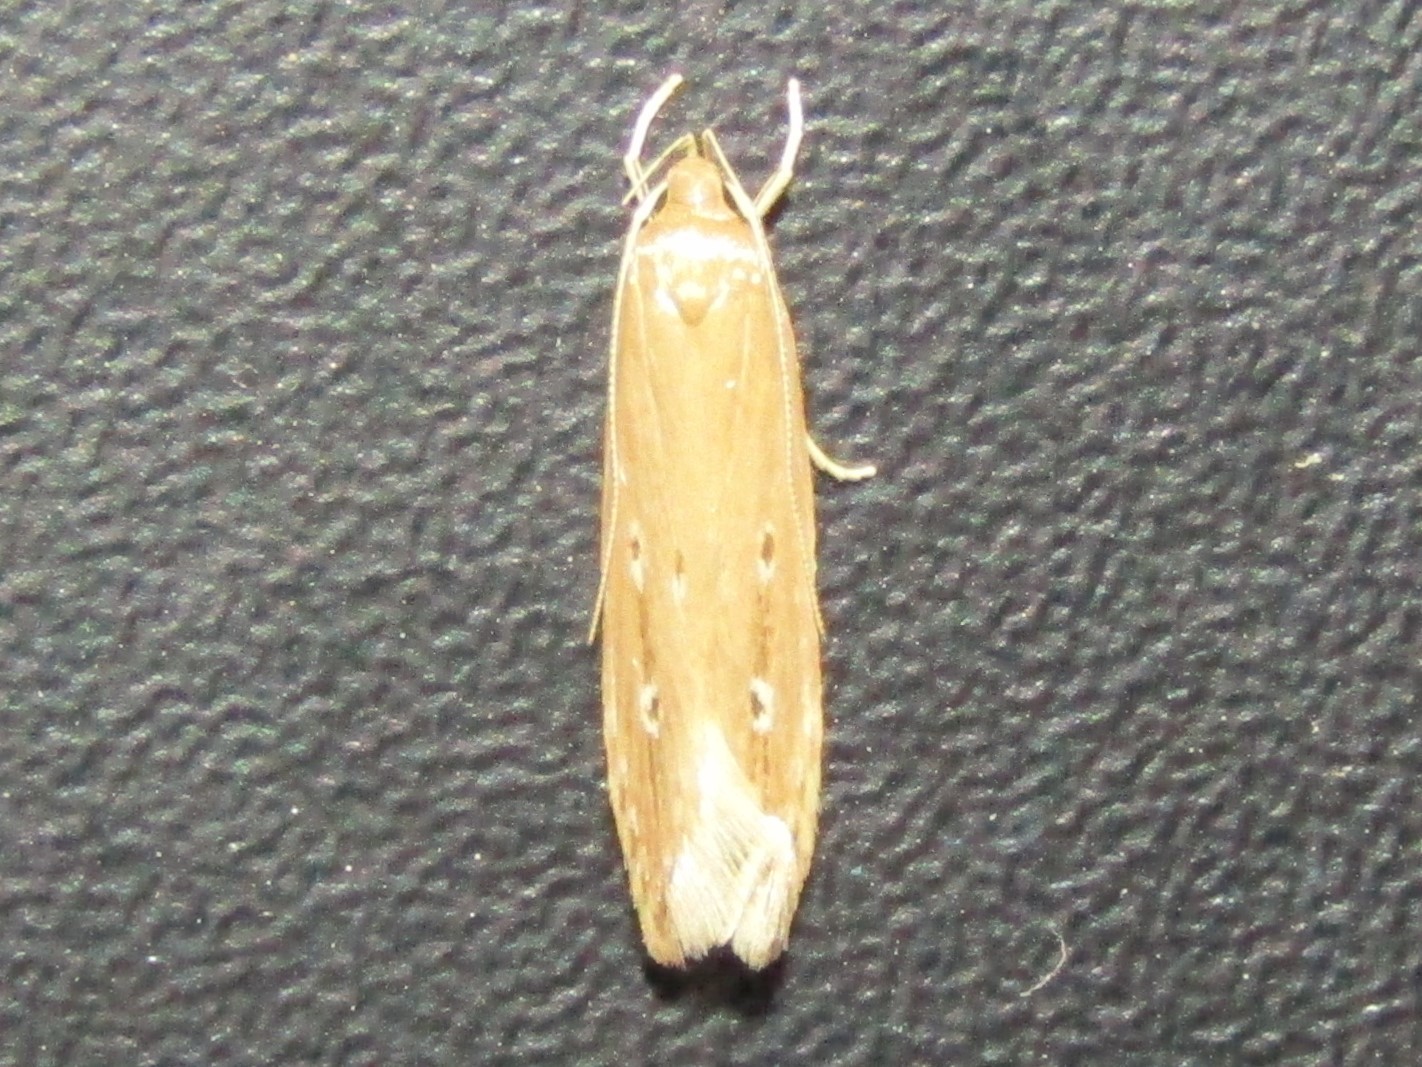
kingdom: Animalia
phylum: Arthropoda
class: Insecta
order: Lepidoptera
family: Cosmopterigidae
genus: Limnaecia
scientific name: Limnaecia phragmitella
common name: Bulrush cosmet
